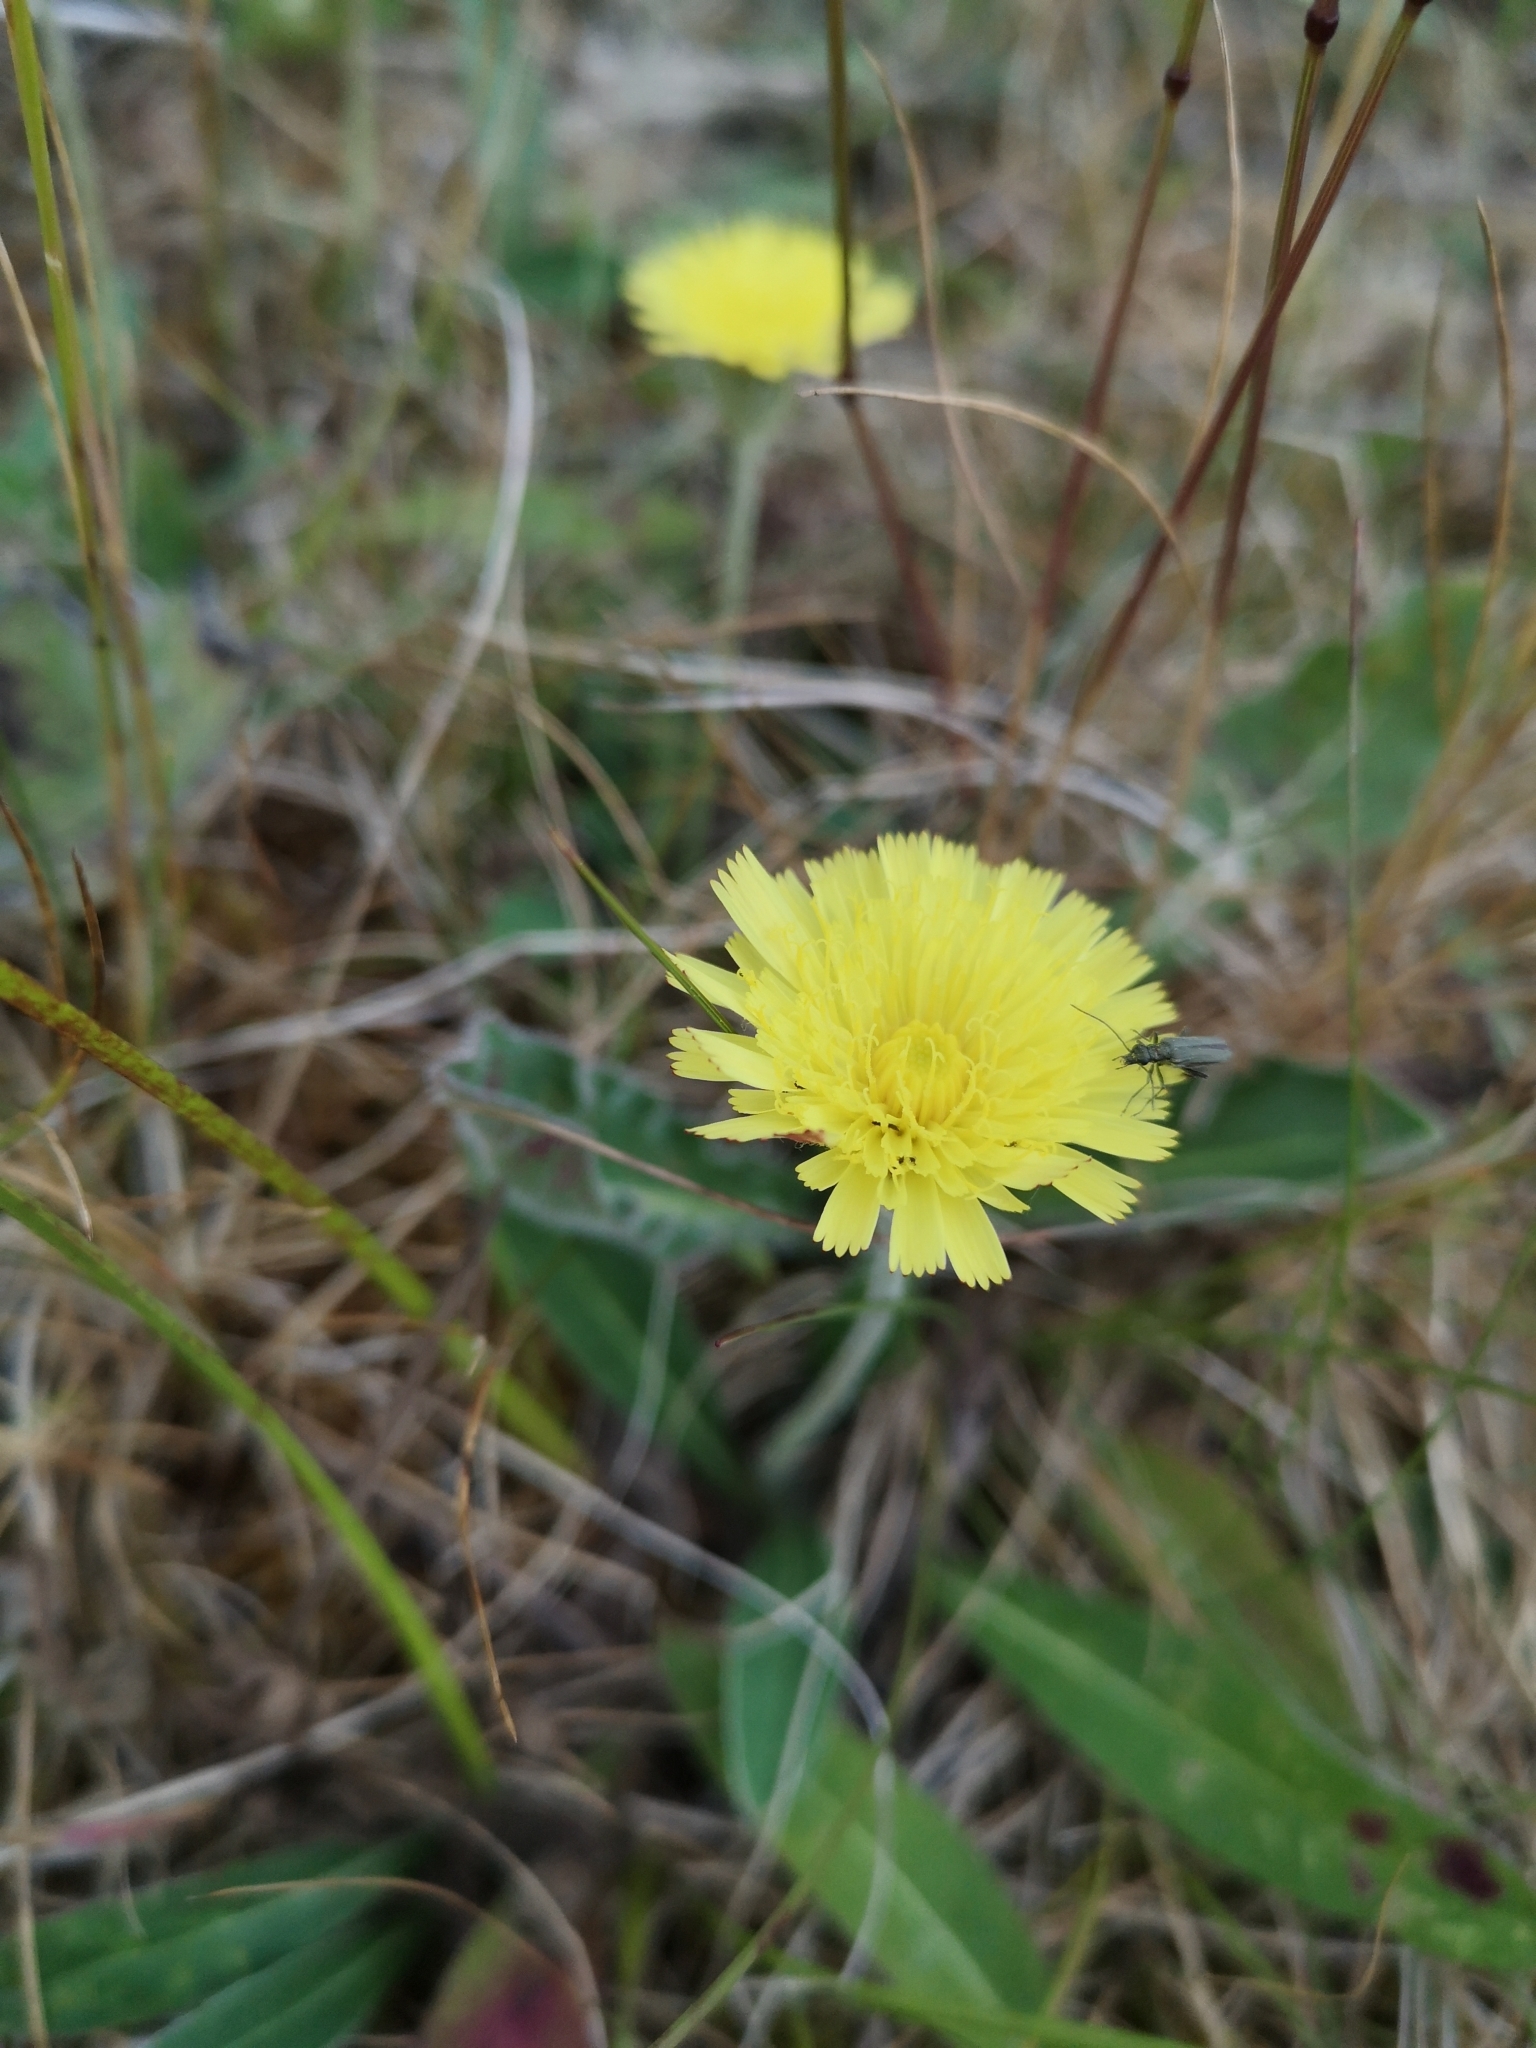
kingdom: Plantae
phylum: Tracheophyta
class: Magnoliopsida
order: Asterales
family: Asteraceae
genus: Pilosella
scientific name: Pilosella officinarum
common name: Mouse-ear hawkweed
